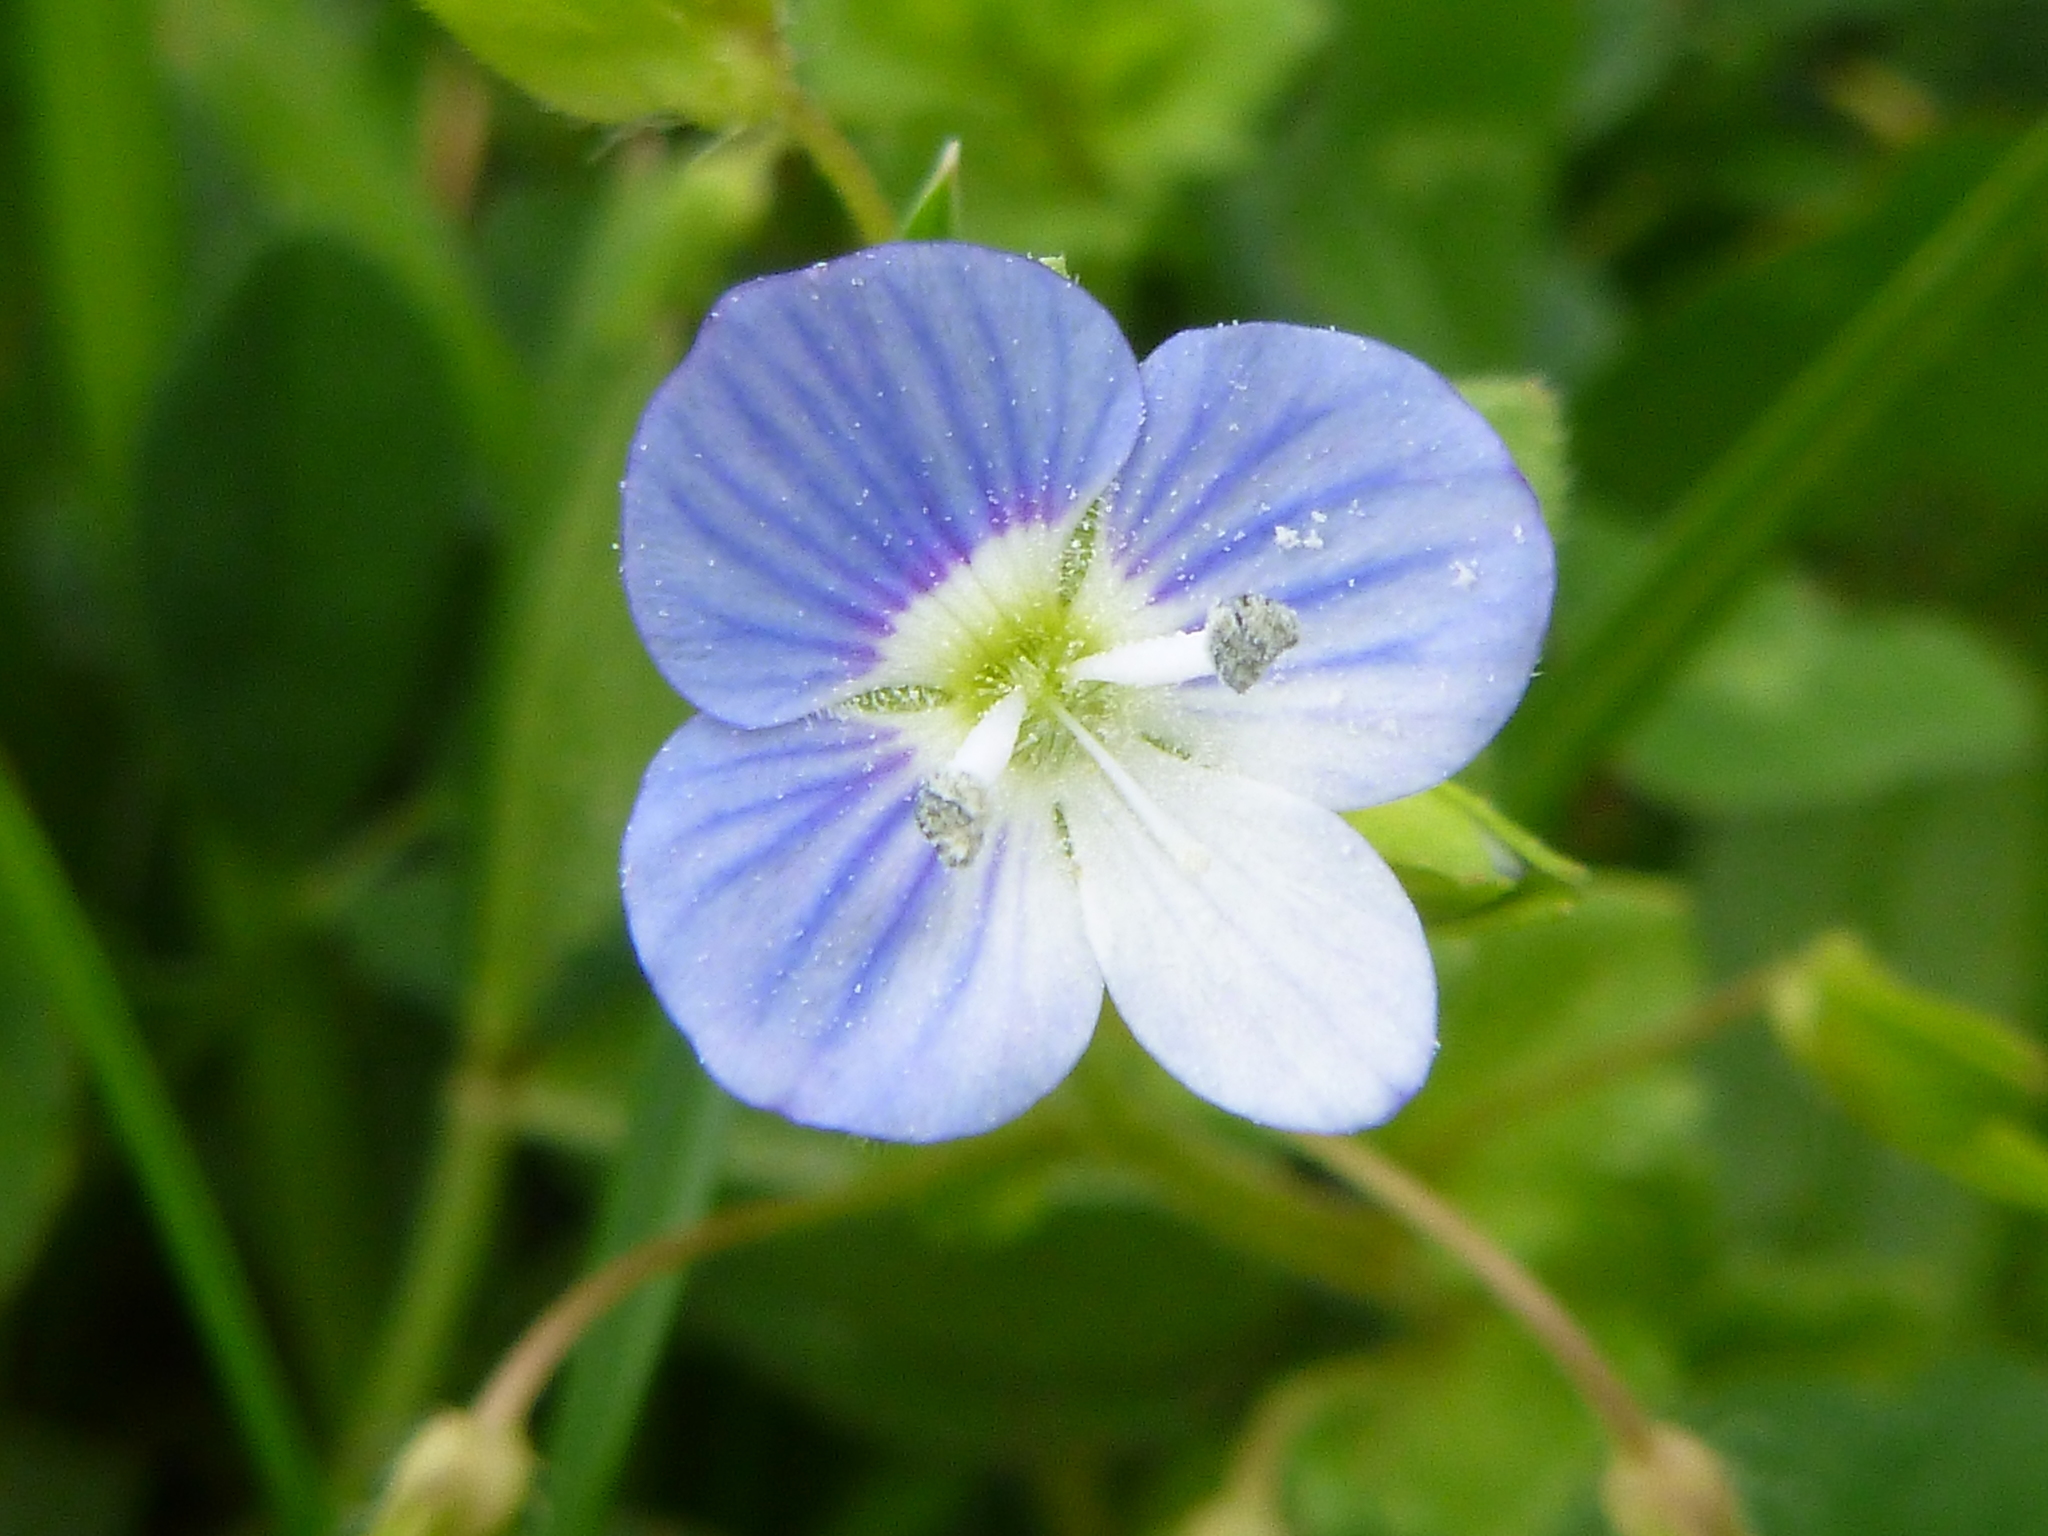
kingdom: Plantae
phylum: Tracheophyta
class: Magnoliopsida
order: Lamiales
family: Plantaginaceae
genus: Veronica
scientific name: Veronica persica
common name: Common field-speedwell
